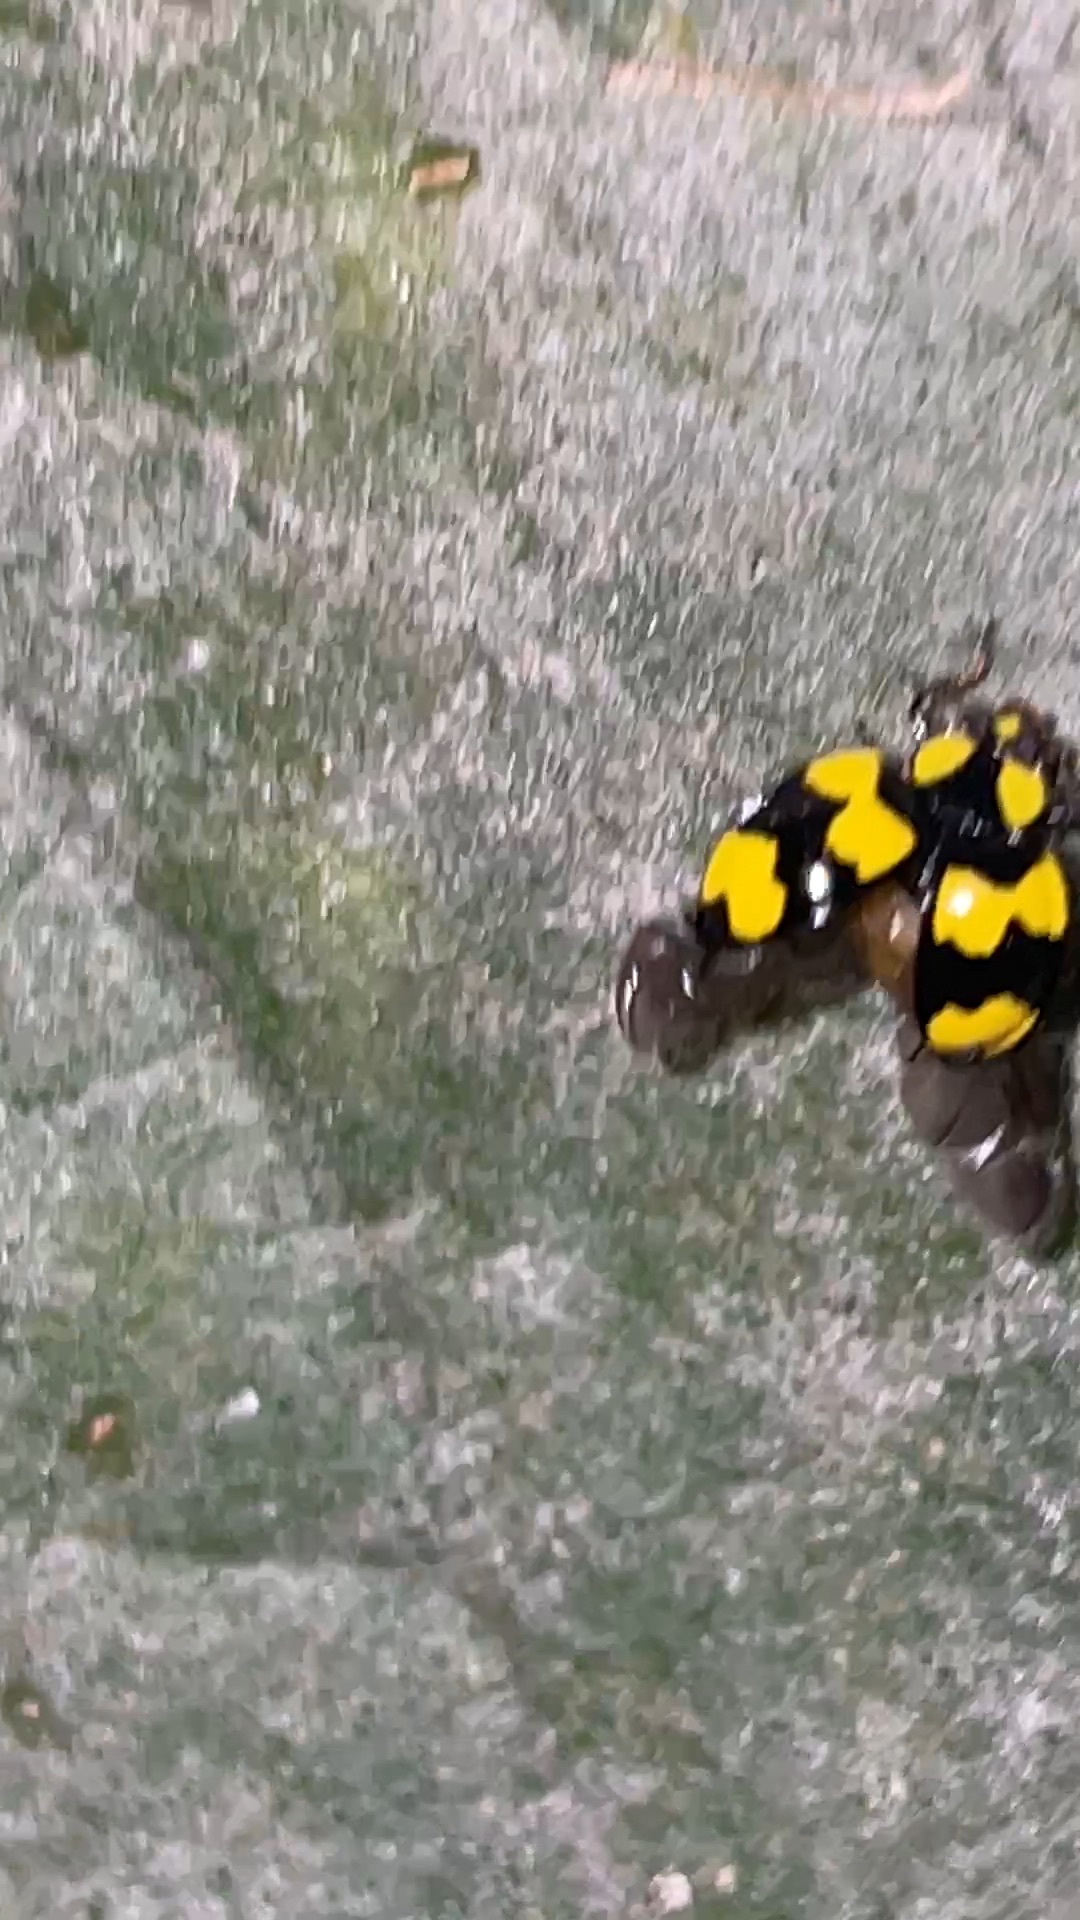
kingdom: Animalia
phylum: Arthropoda
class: Insecta
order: Coleoptera
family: Coccinellidae
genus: Illeis
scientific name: Illeis galbula
